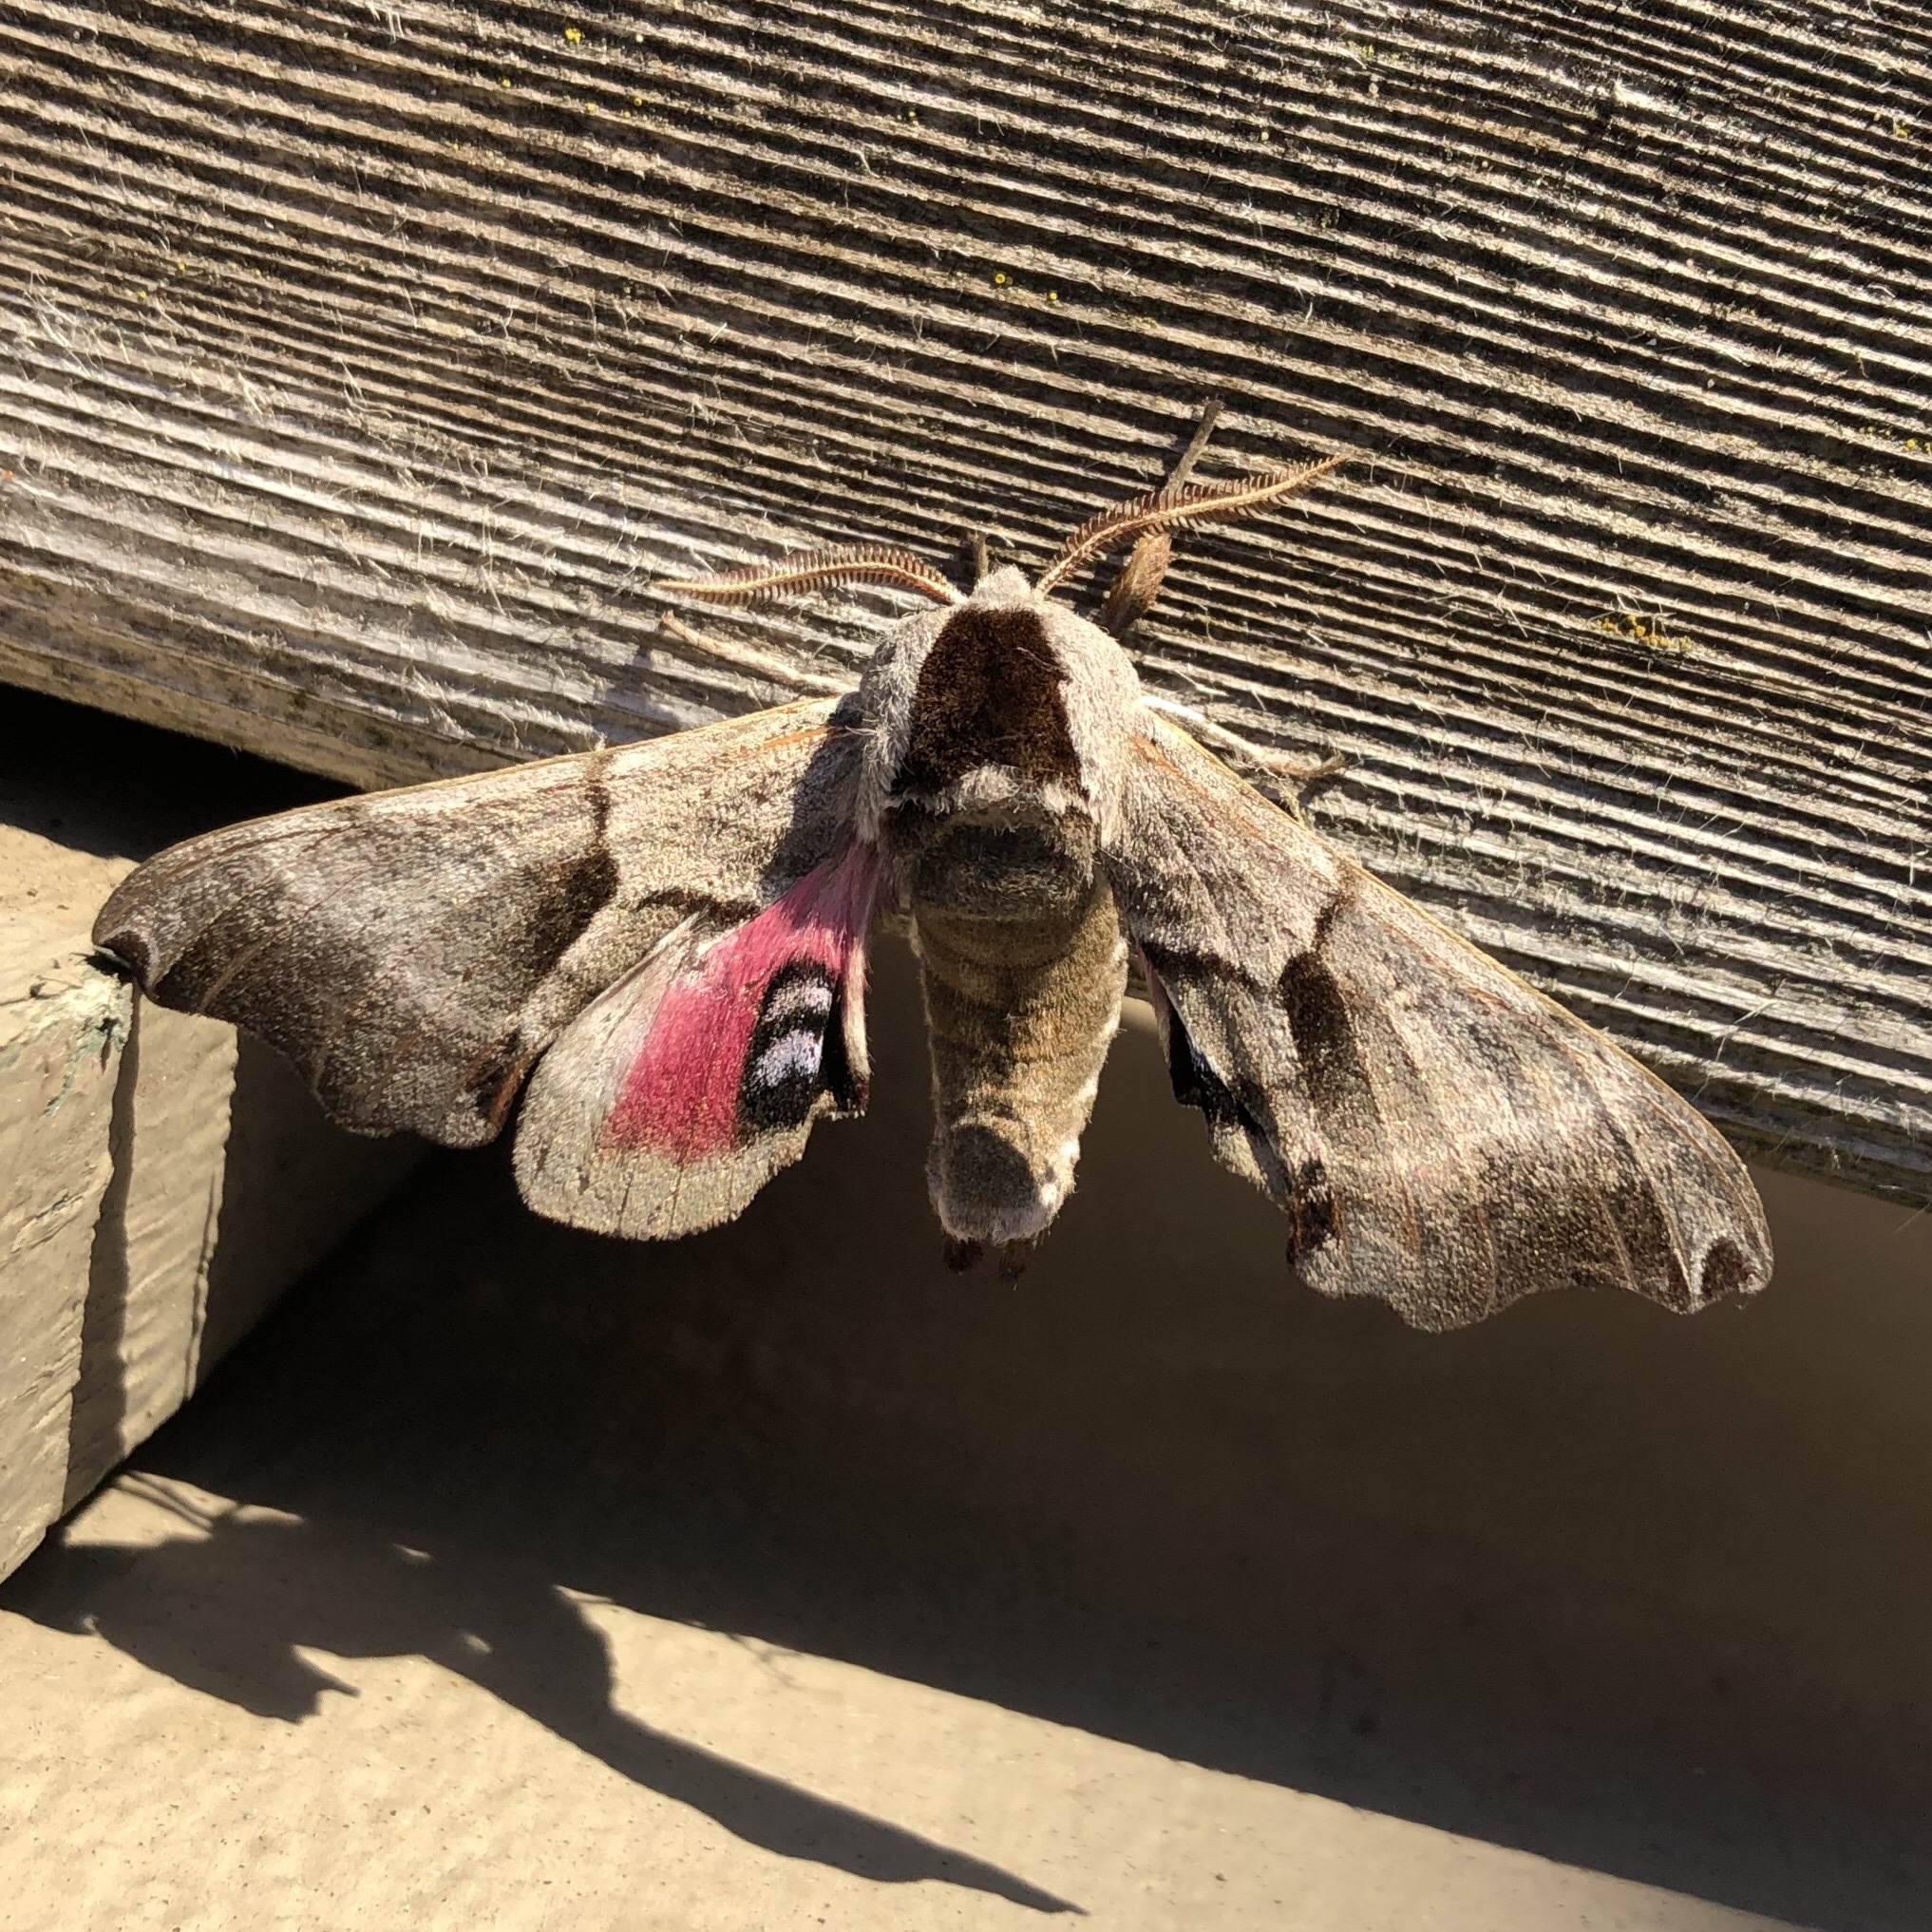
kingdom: Animalia
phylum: Arthropoda
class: Insecta
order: Lepidoptera
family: Sphingidae
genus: Smerinthus
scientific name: Smerinthus jamaicensis
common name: Twin spotted sphinx
